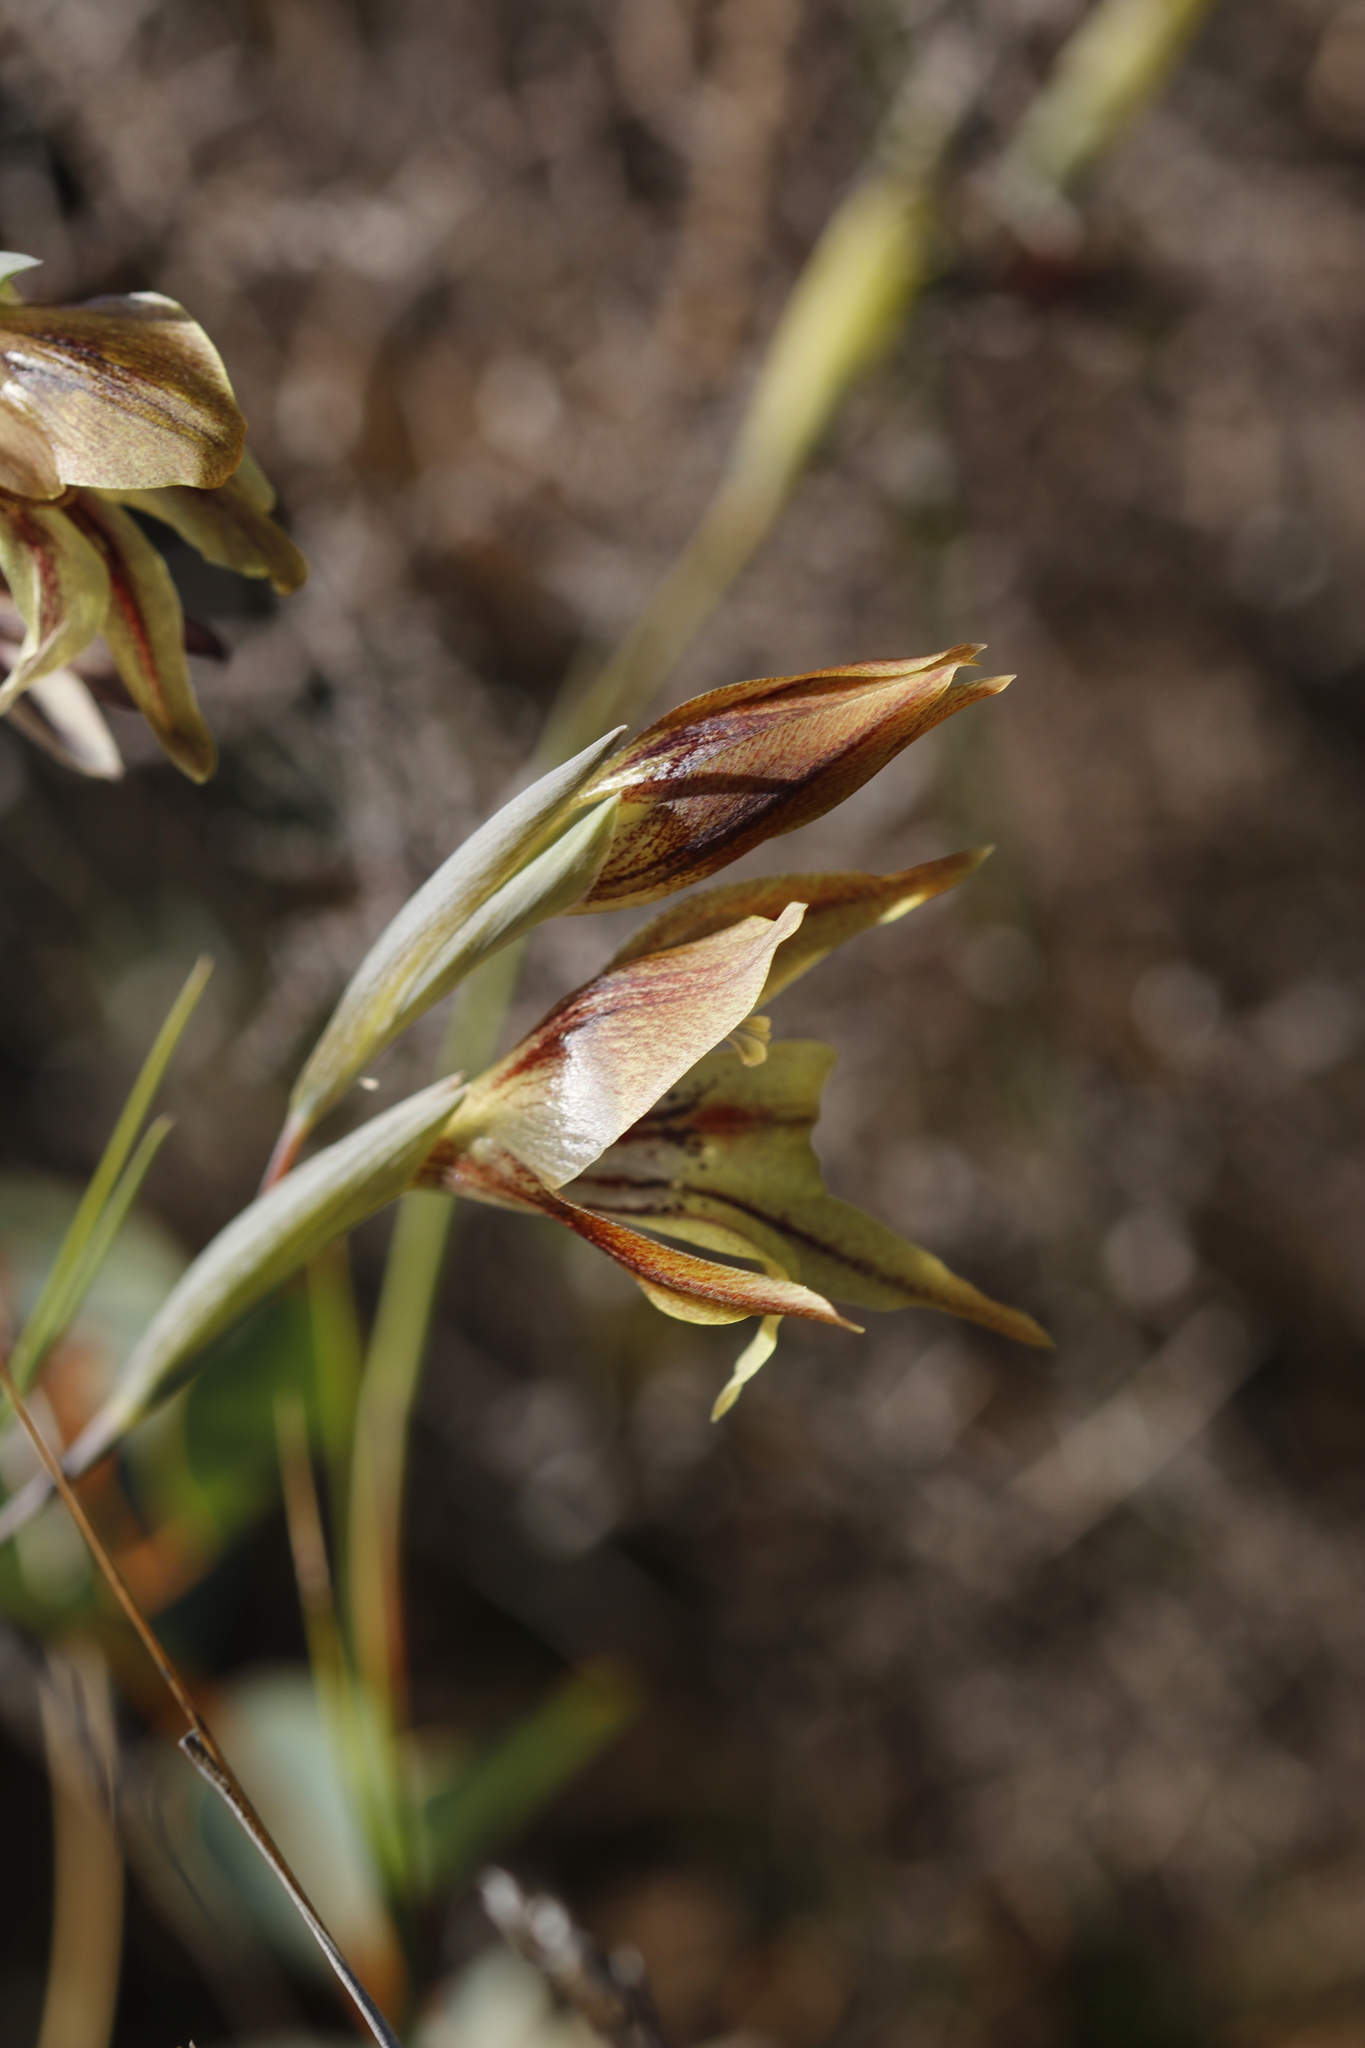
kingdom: Plantae
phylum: Tracheophyta
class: Liliopsida
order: Asparagales
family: Iridaceae
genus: Gladiolus
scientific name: Gladiolus hyalinus
